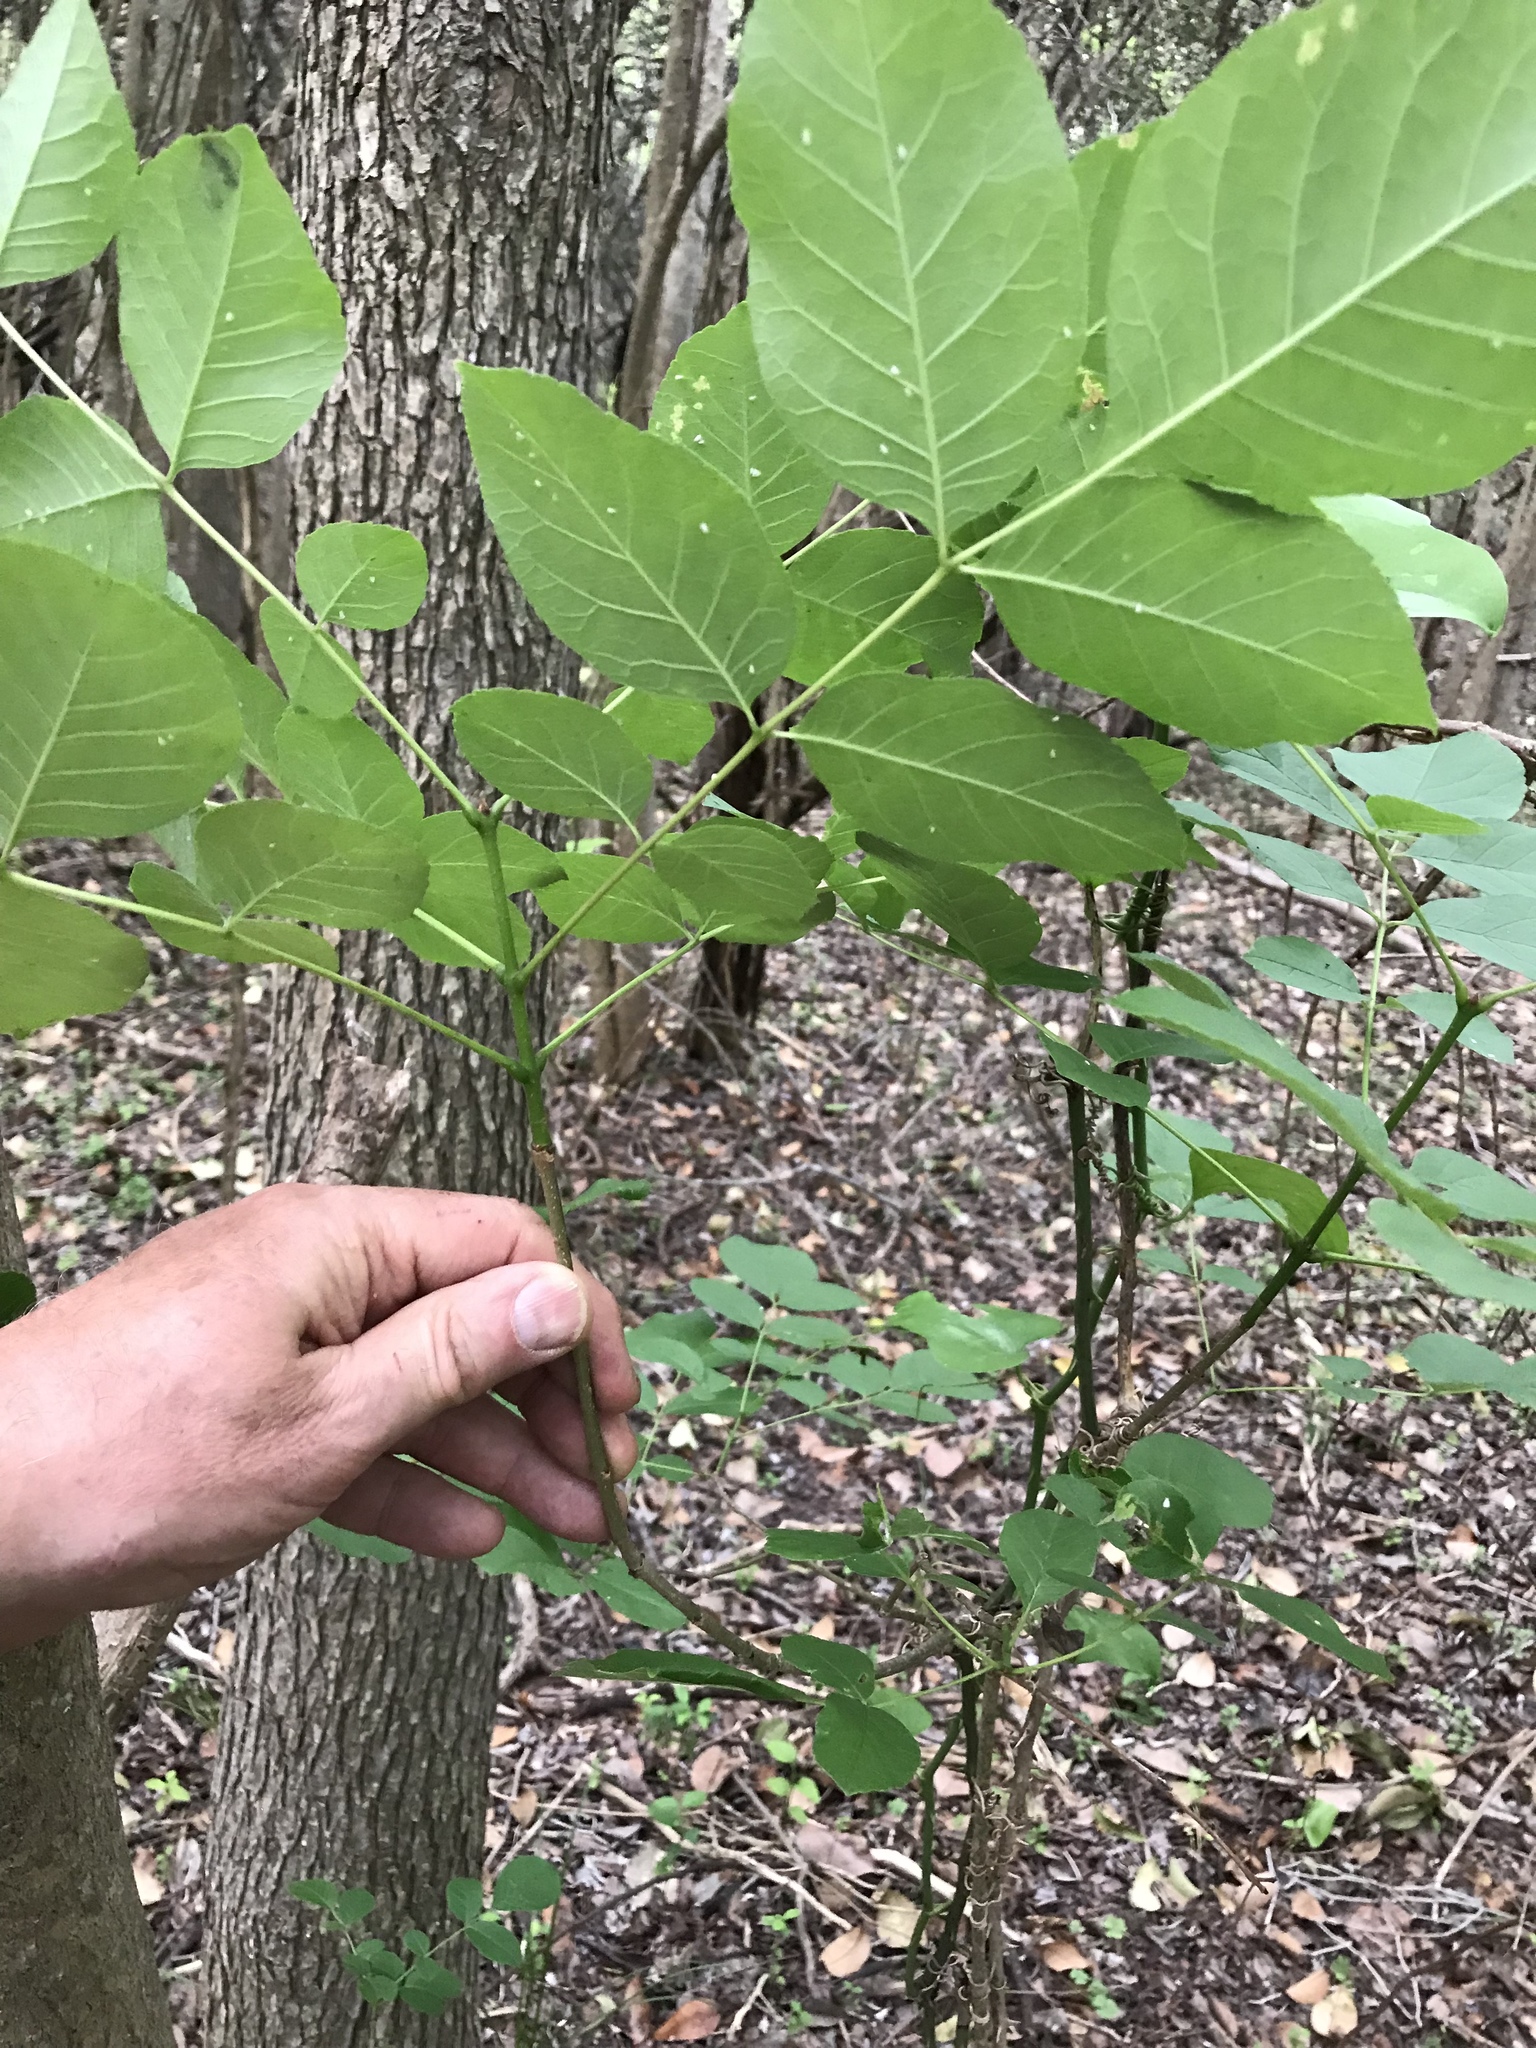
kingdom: Plantae
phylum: Tracheophyta
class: Magnoliopsida
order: Lamiales
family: Oleaceae
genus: Fraxinus
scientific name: Fraxinus albicans
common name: Texas ash
